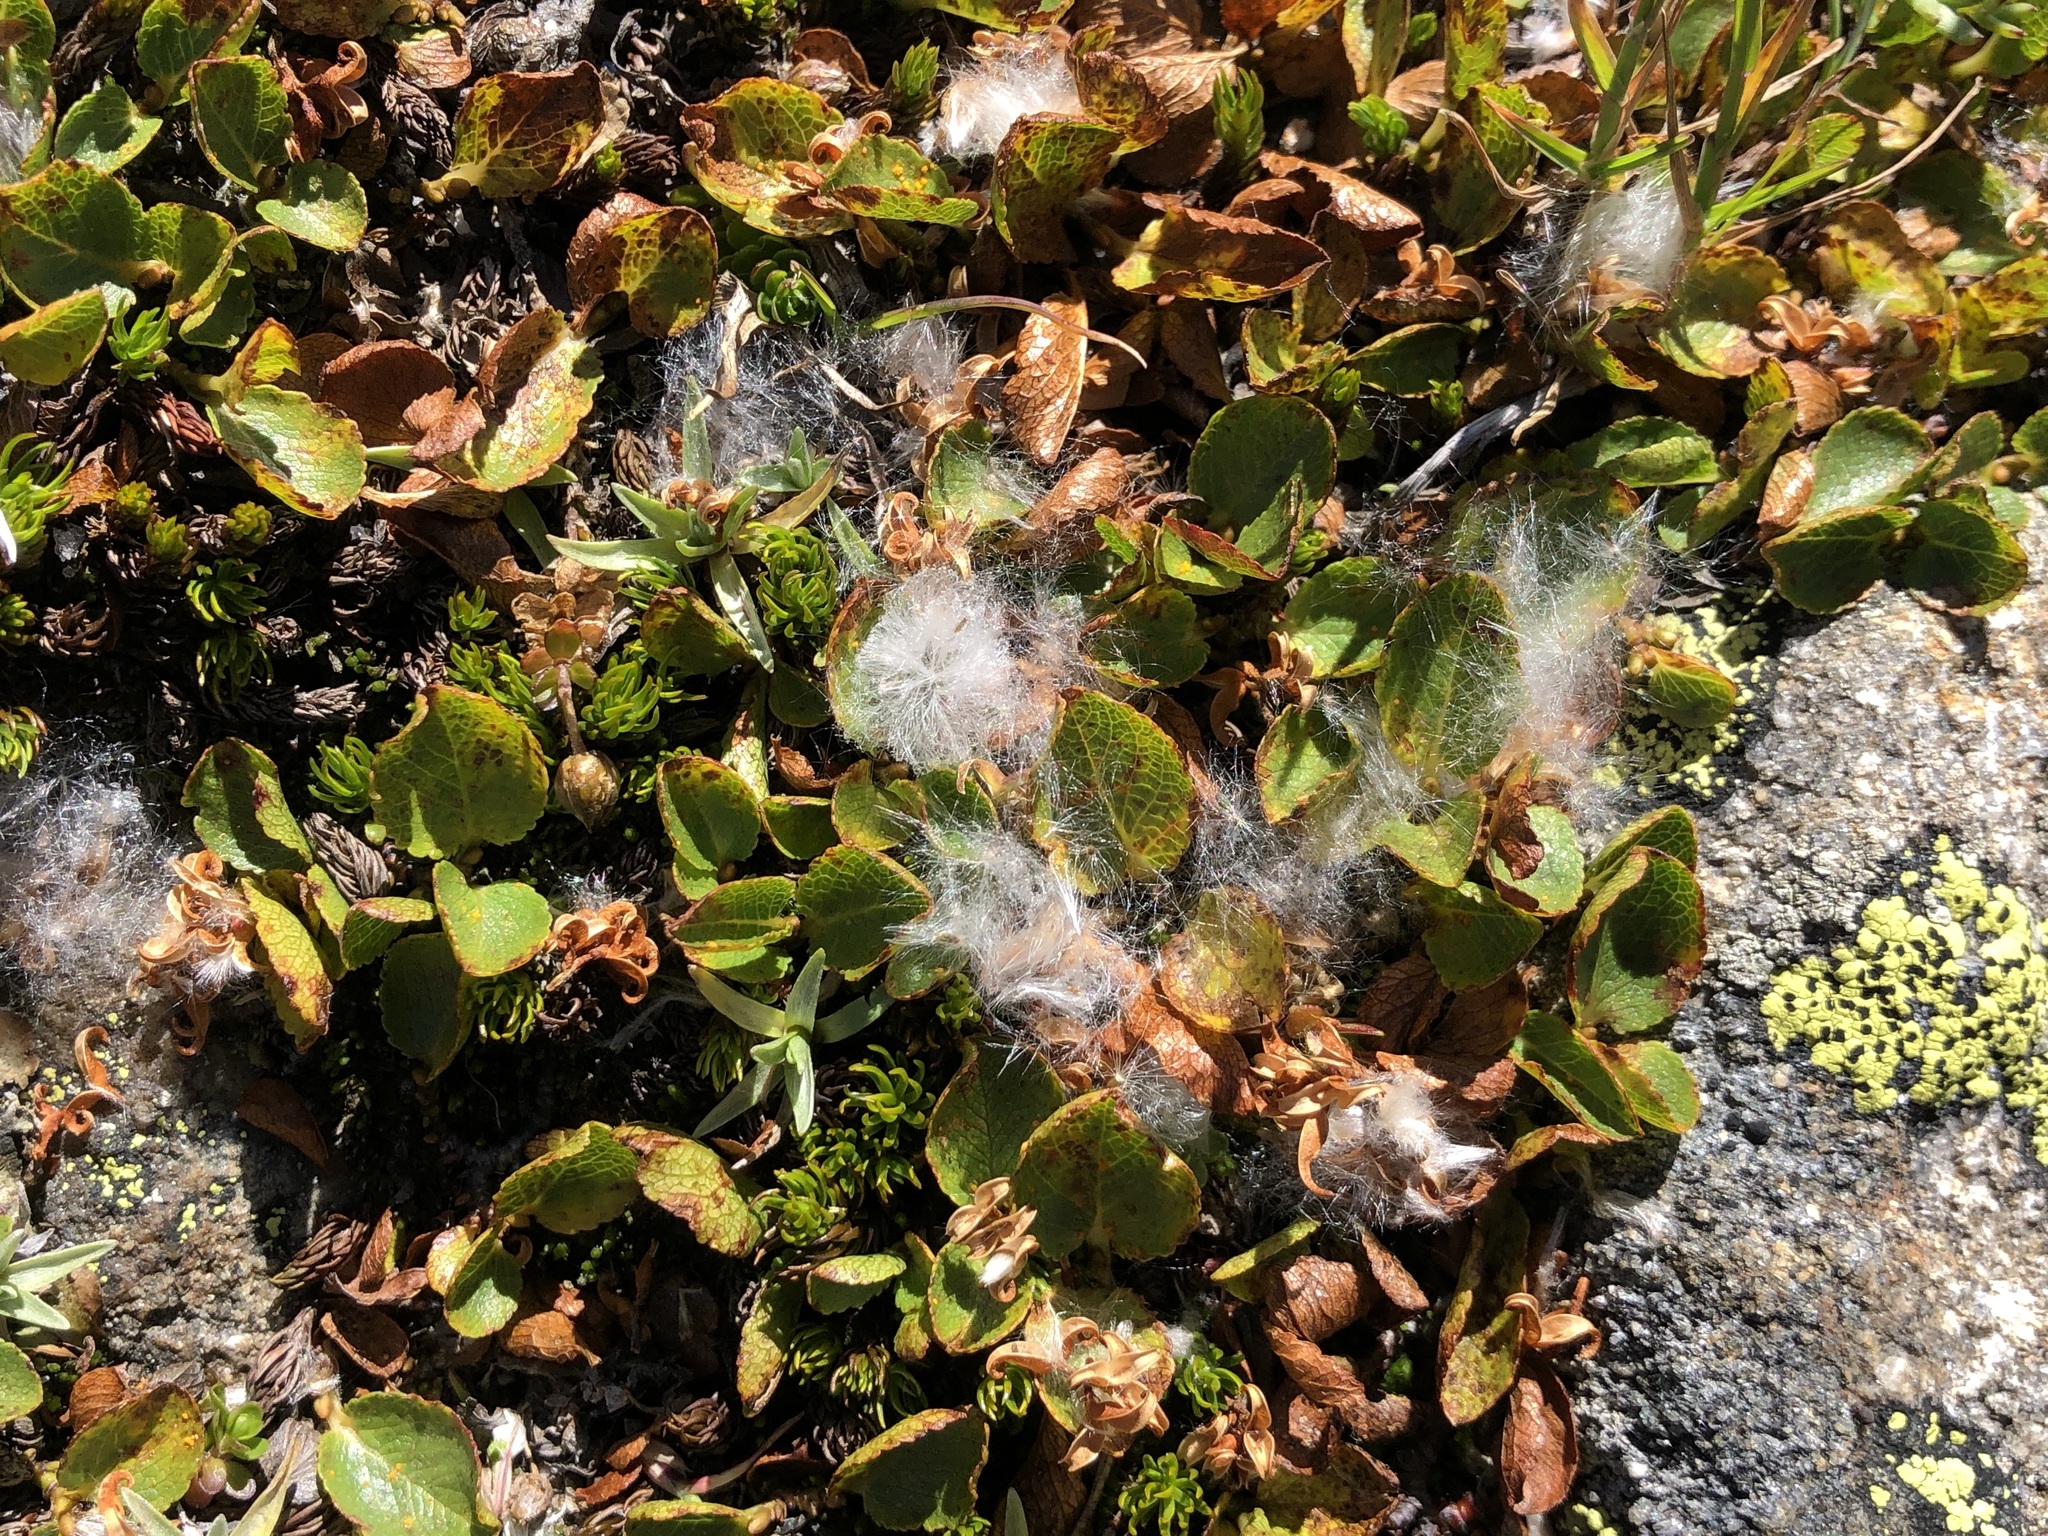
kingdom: Plantae
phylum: Tracheophyta
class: Magnoliopsida
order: Malpighiales
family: Salicaceae
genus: Salix
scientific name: Salix herbacea
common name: Dwarf willow
